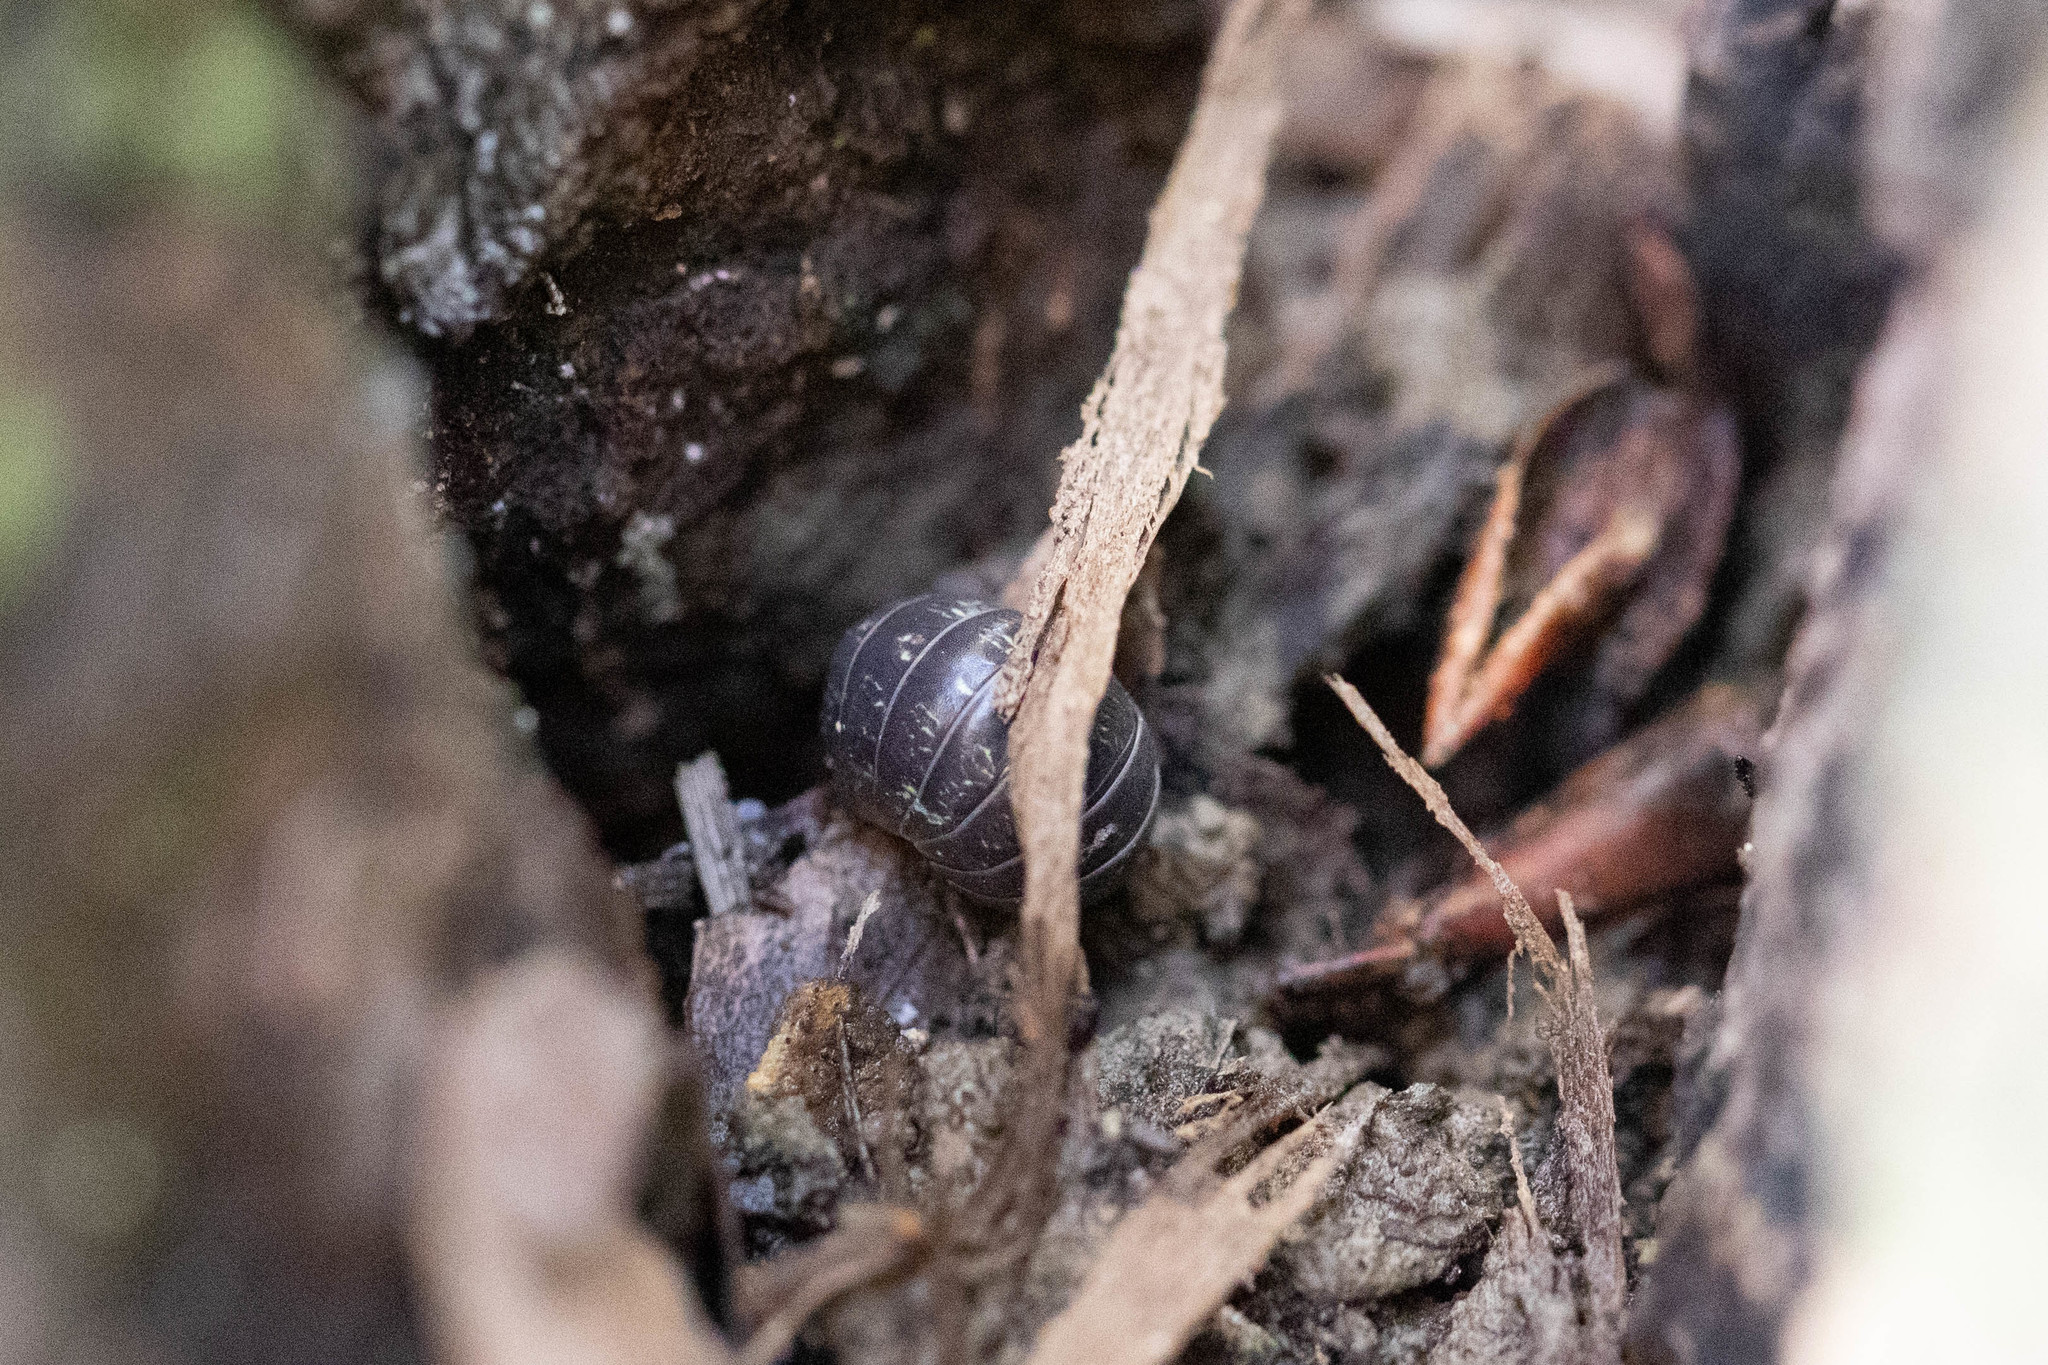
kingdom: Animalia
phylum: Arthropoda
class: Malacostraca
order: Isopoda
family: Armadillidiidae
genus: Armadillidium
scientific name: Armadillidium vulgare
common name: Common pill woodlouse
